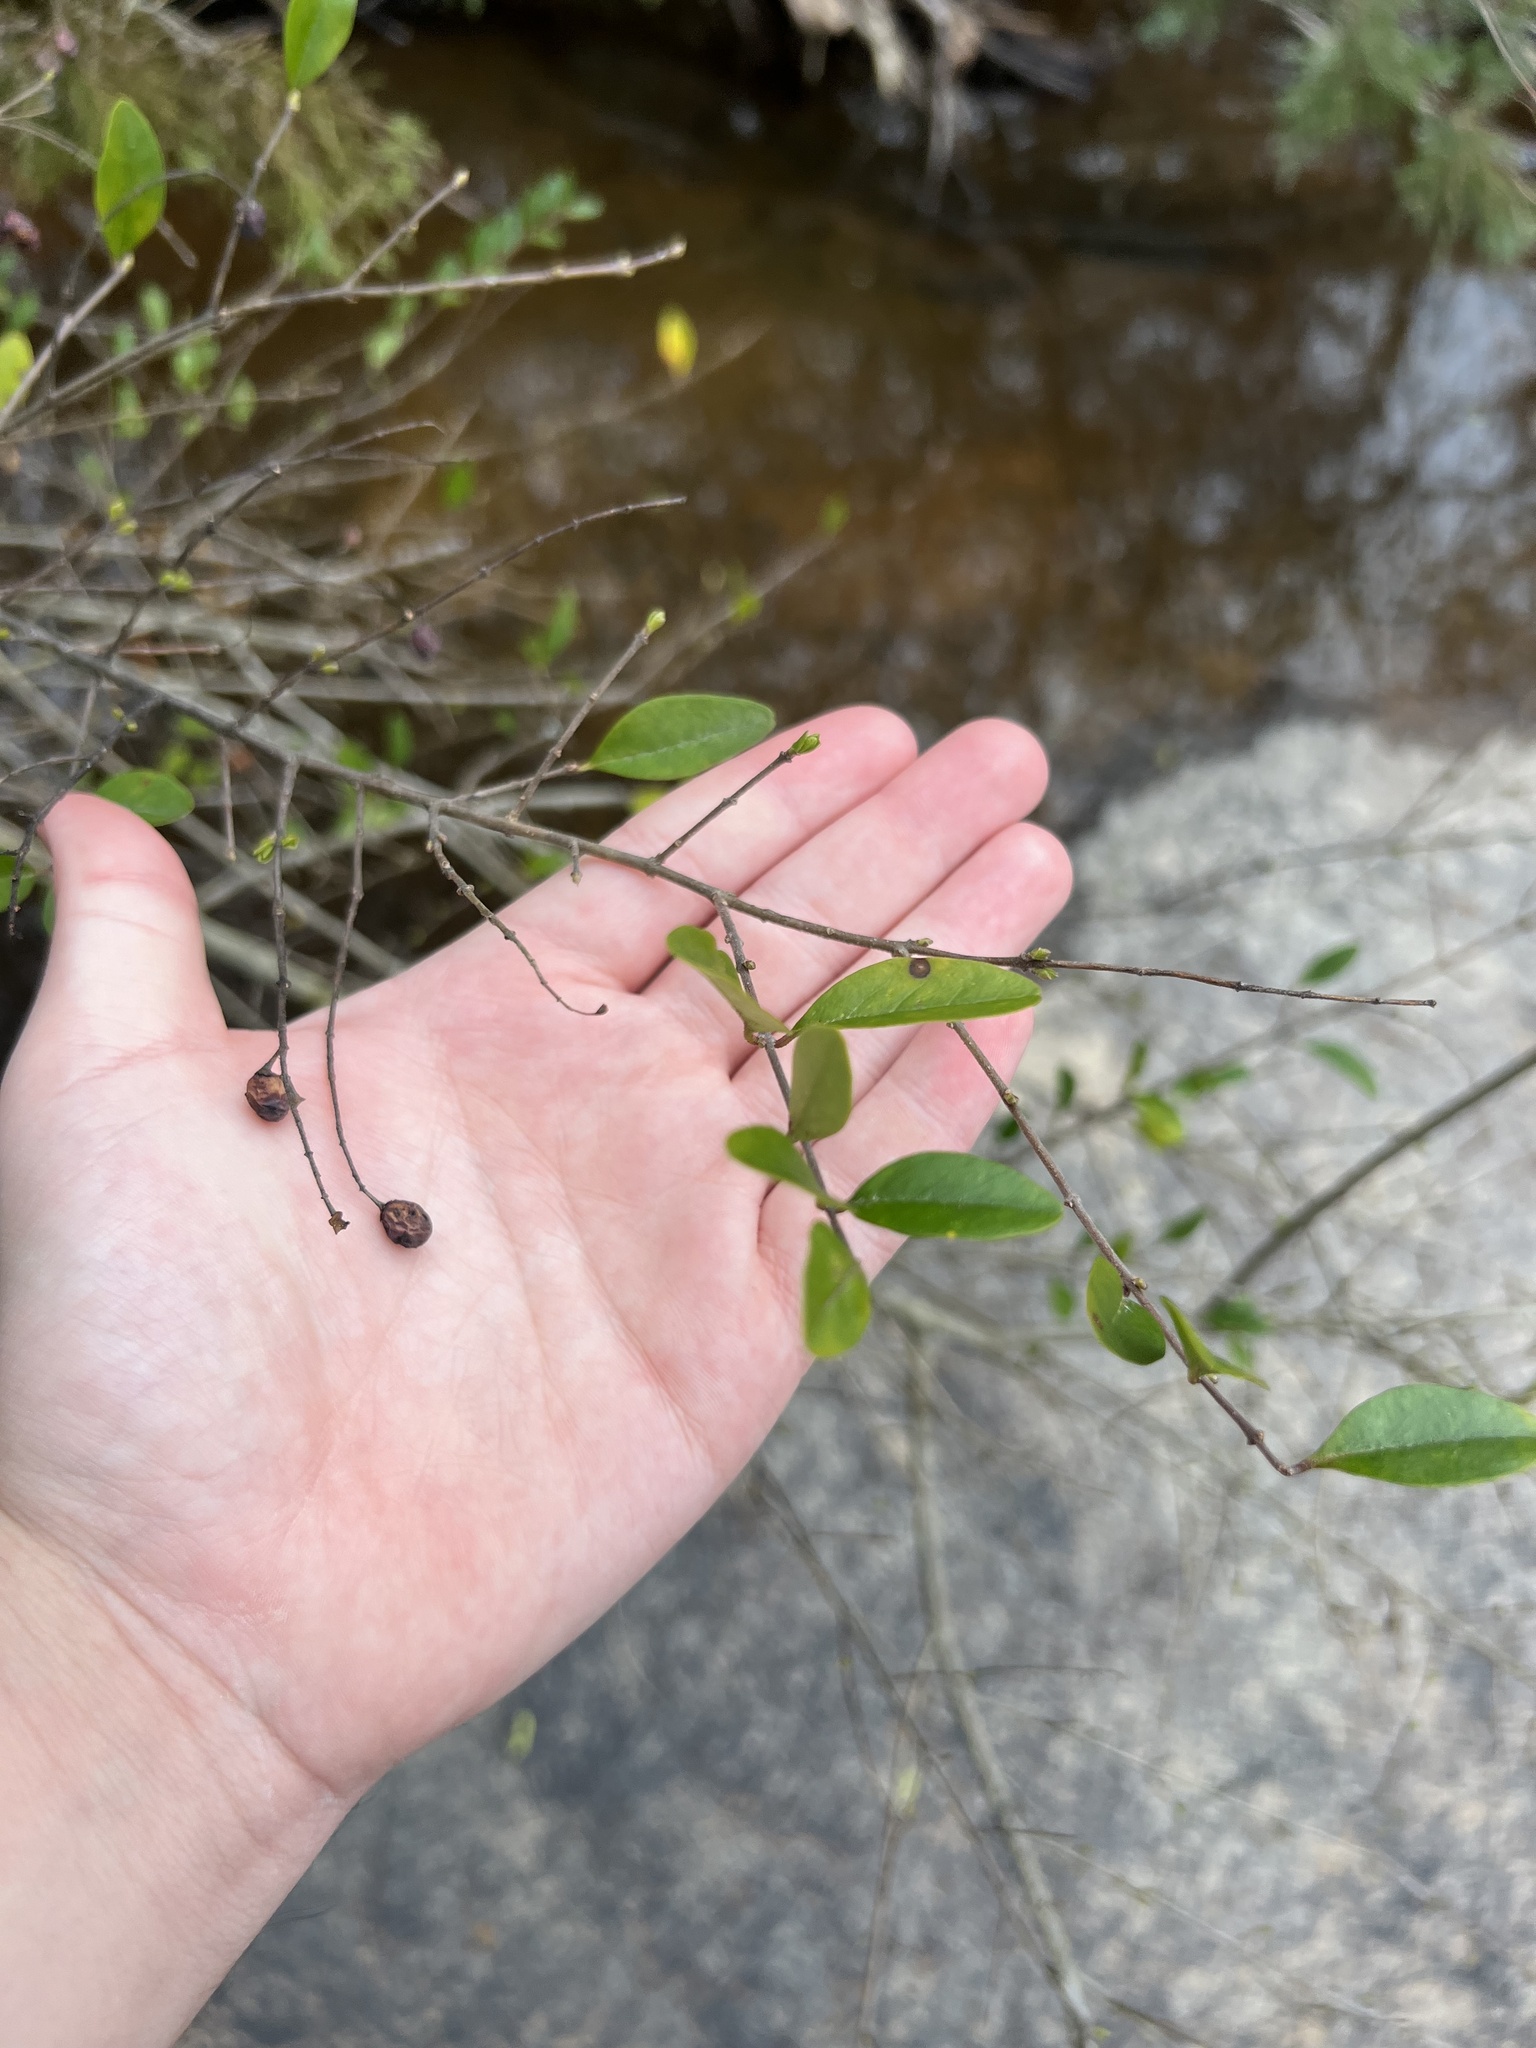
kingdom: Plantae
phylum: Tracheophyta
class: Magnoliopsida
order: Lamiales
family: Oleaceae
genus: Ligustrum
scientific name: Ligustrum sinense
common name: Chinese privet
